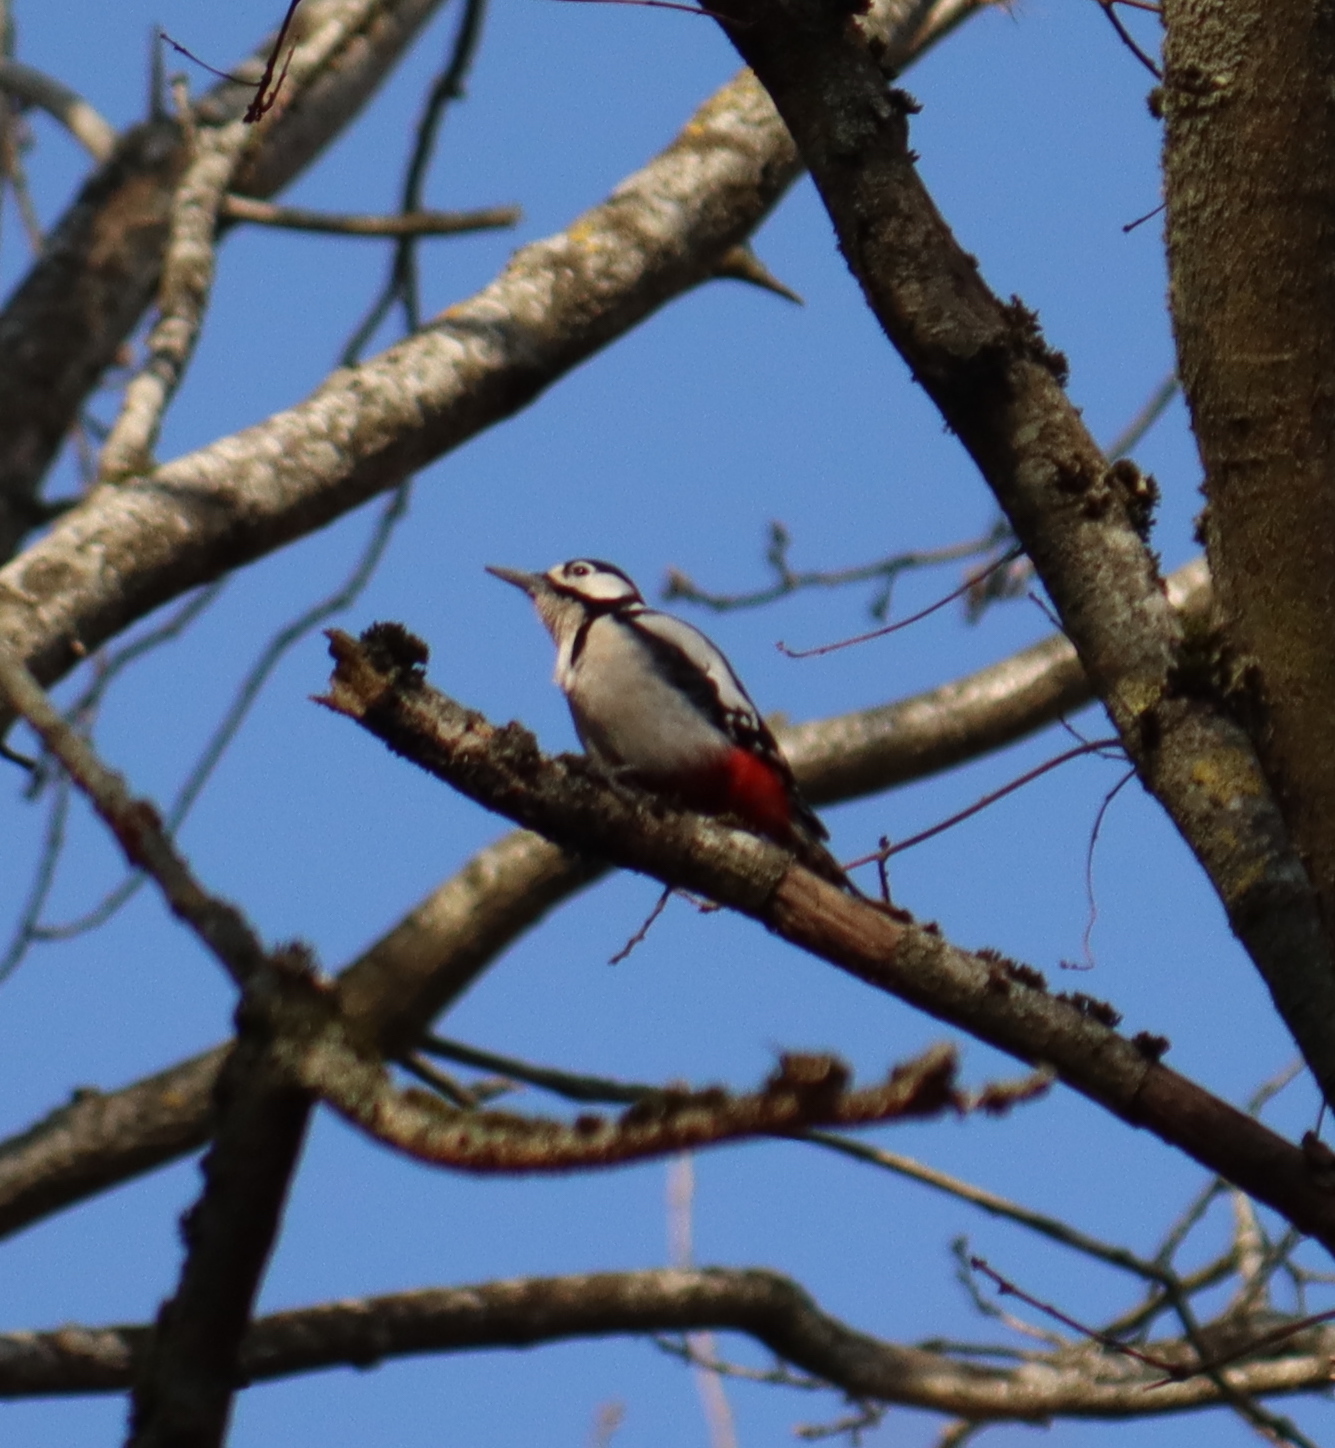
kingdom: Animalia
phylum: Chordata
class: Aves
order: Piciformes
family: Picidae
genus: Dendrocopos
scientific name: Dendrocopos major
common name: Great spotted woodpecker
